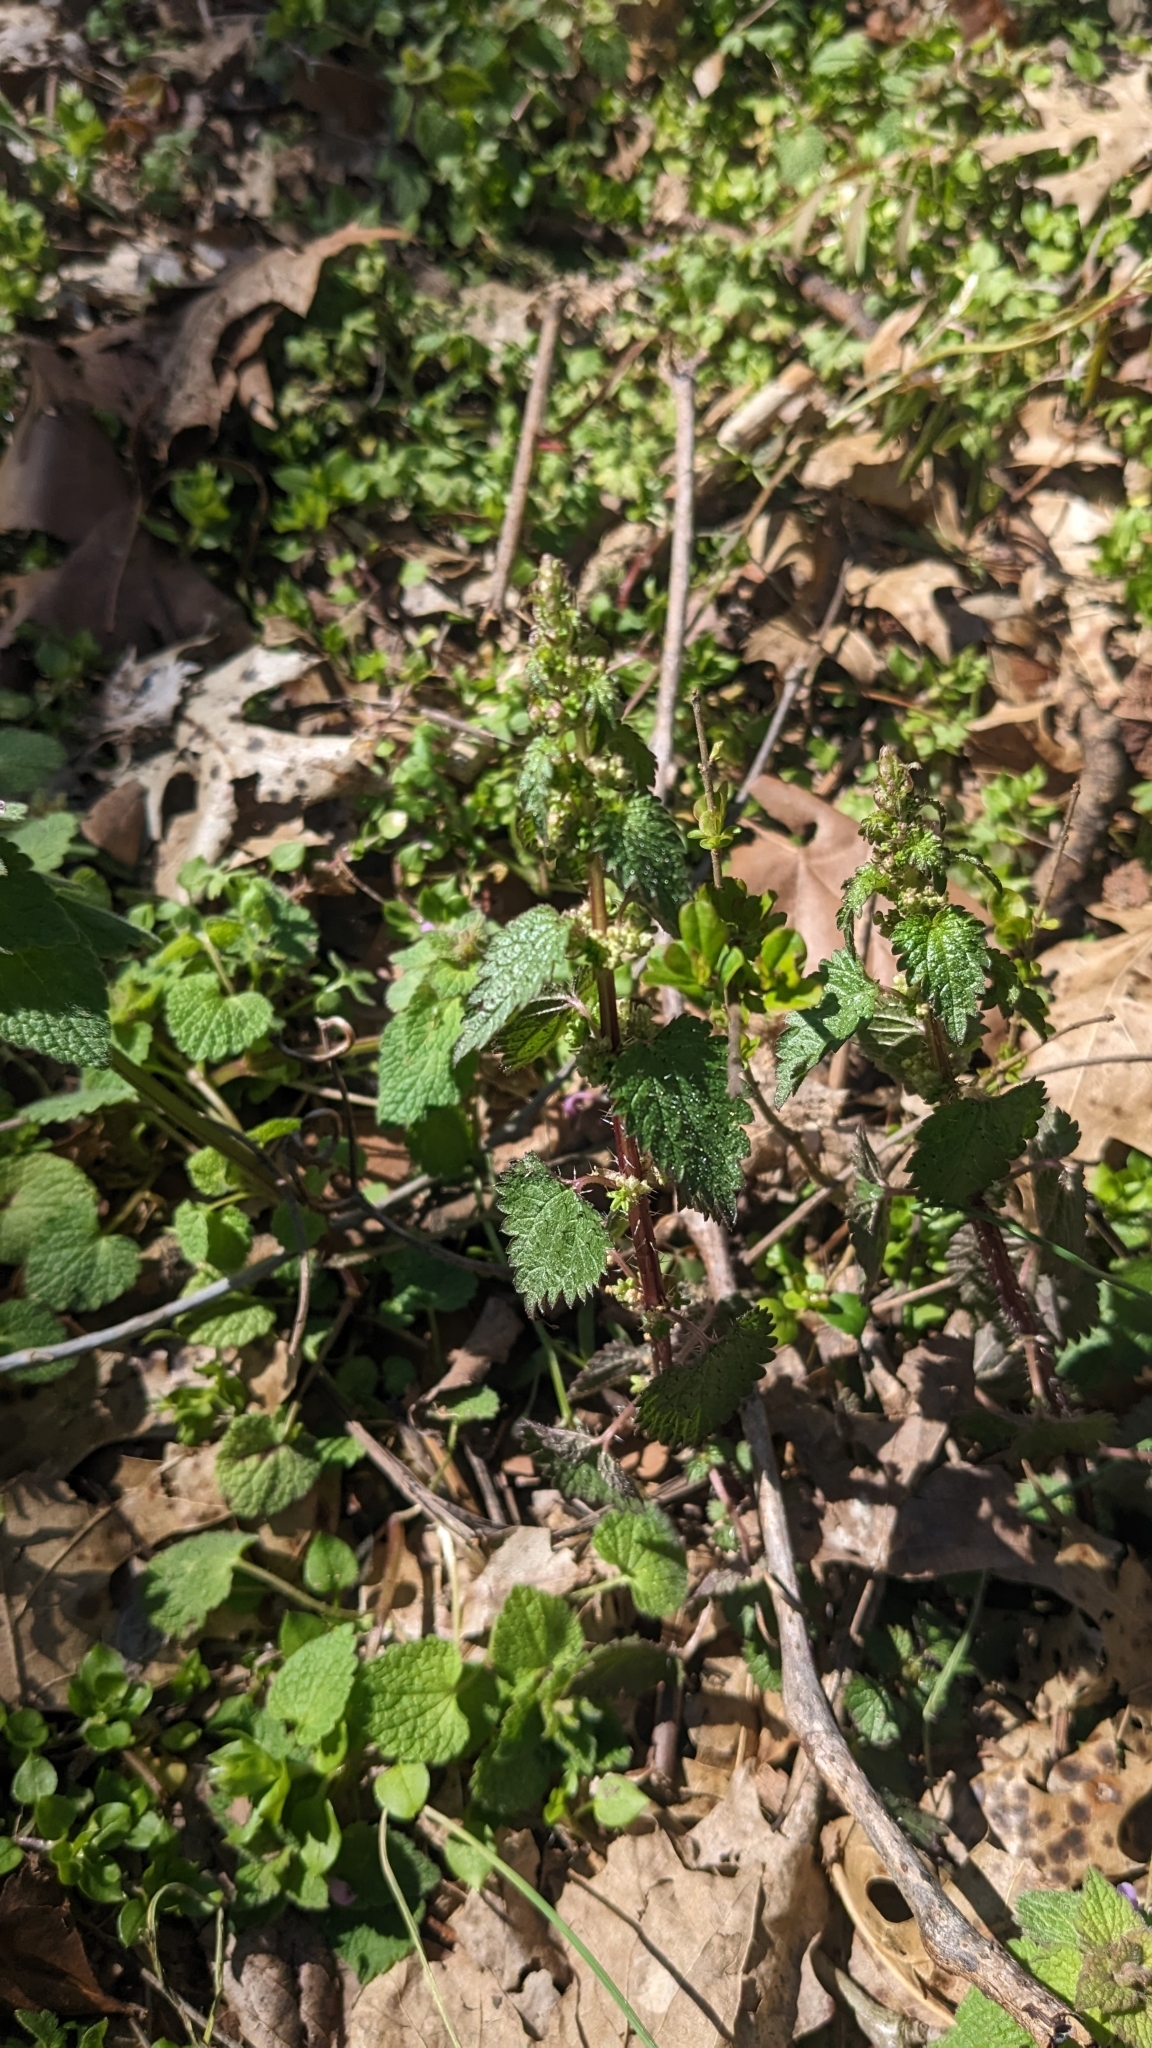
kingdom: Plantae
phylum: Tracheophyta
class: Magnoliopsida
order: Rosales
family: Urticaceae
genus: Urtica
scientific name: Urtica chamaedryoides
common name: Heart-leaf nettle
